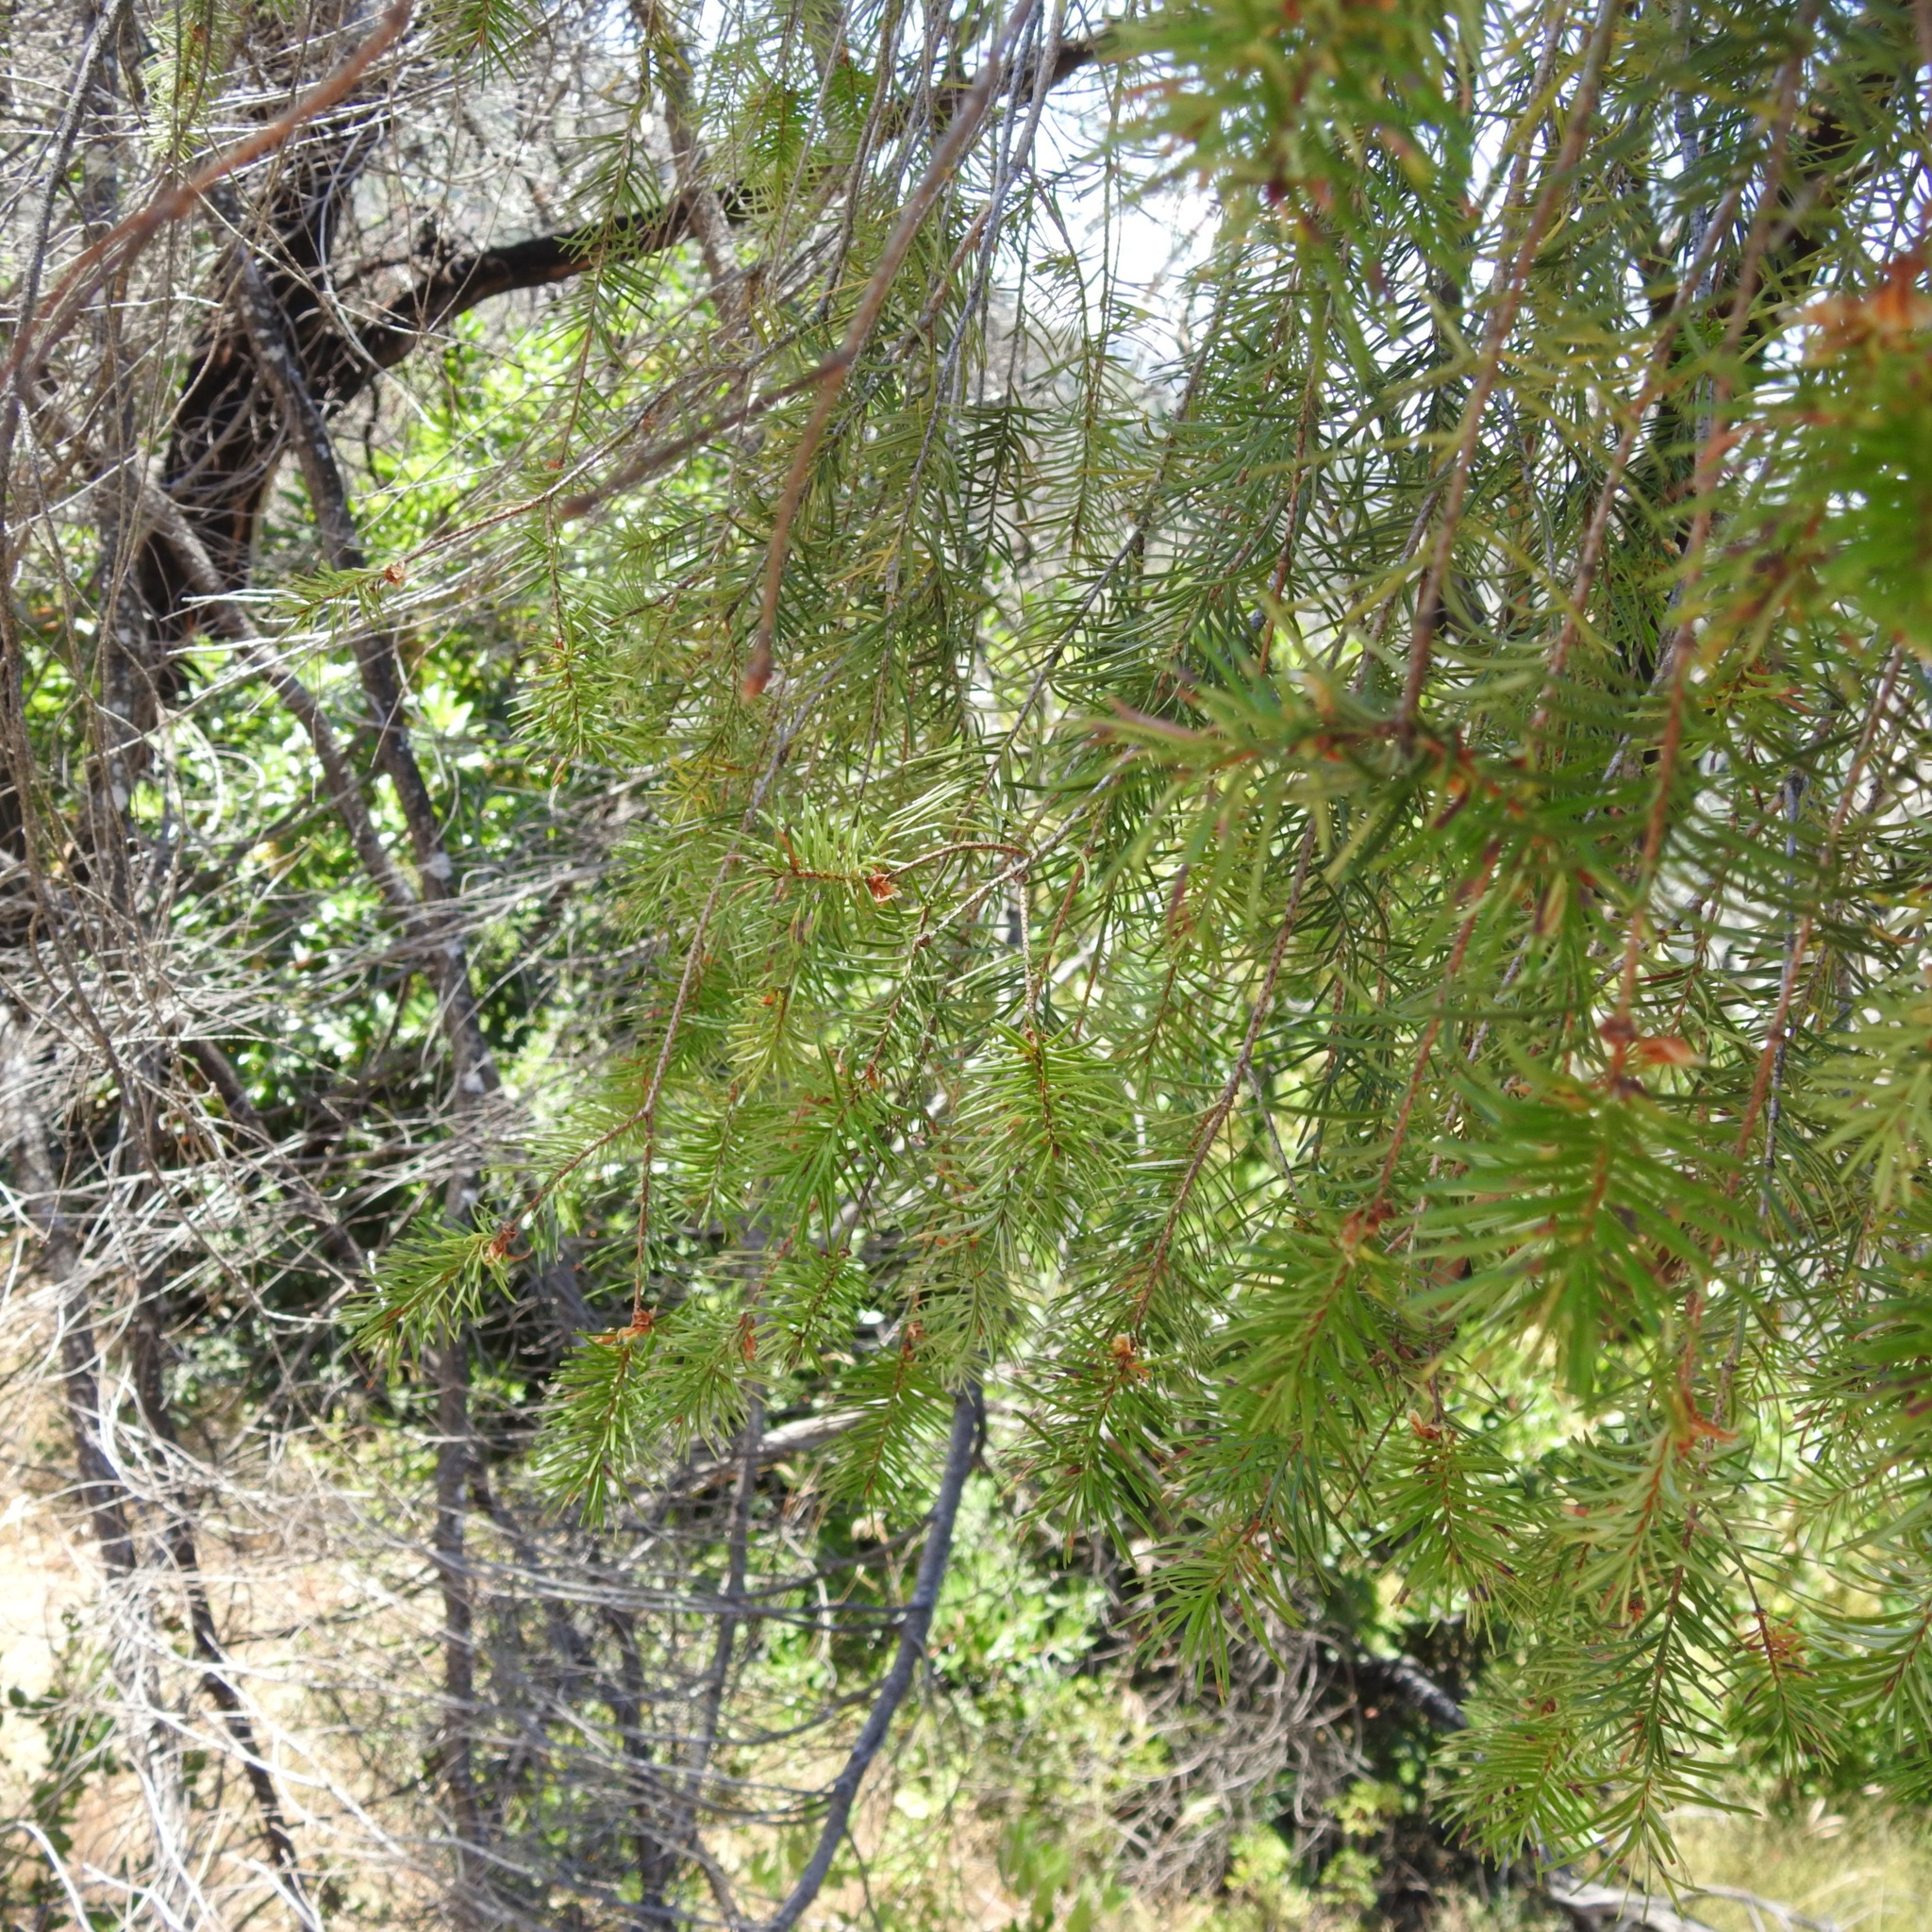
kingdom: Plantae
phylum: Tracheophyta
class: Pinopsida
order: Pinales
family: Pinaceae
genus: Pseudotsuga
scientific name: Pseudotsuga menziesii
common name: Douglas fir
